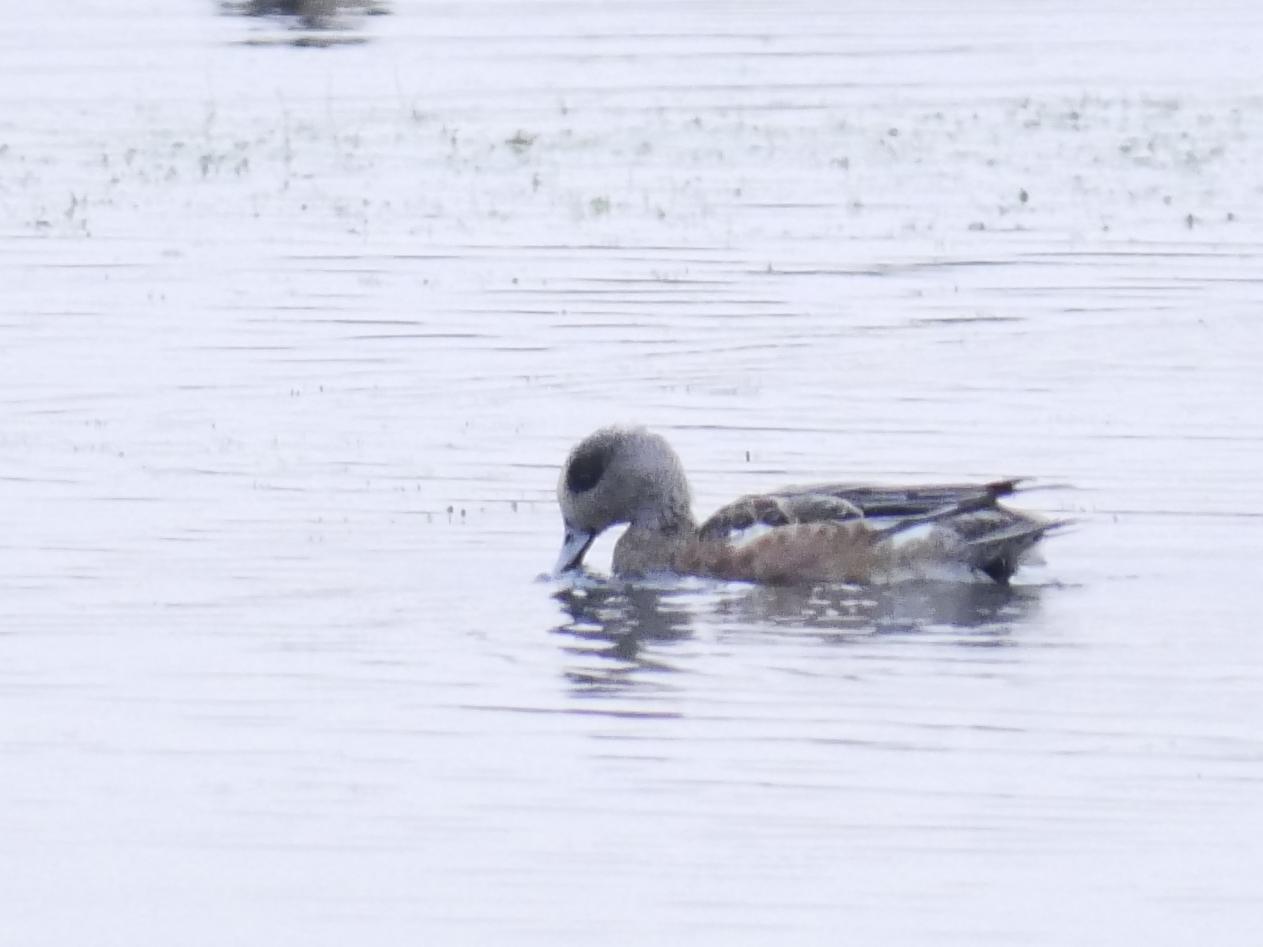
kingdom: Animalia
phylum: Chordata
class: Aves
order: Anseriformes
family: Anatidae
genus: Mareca
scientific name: Mareca americana
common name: American wigeon
